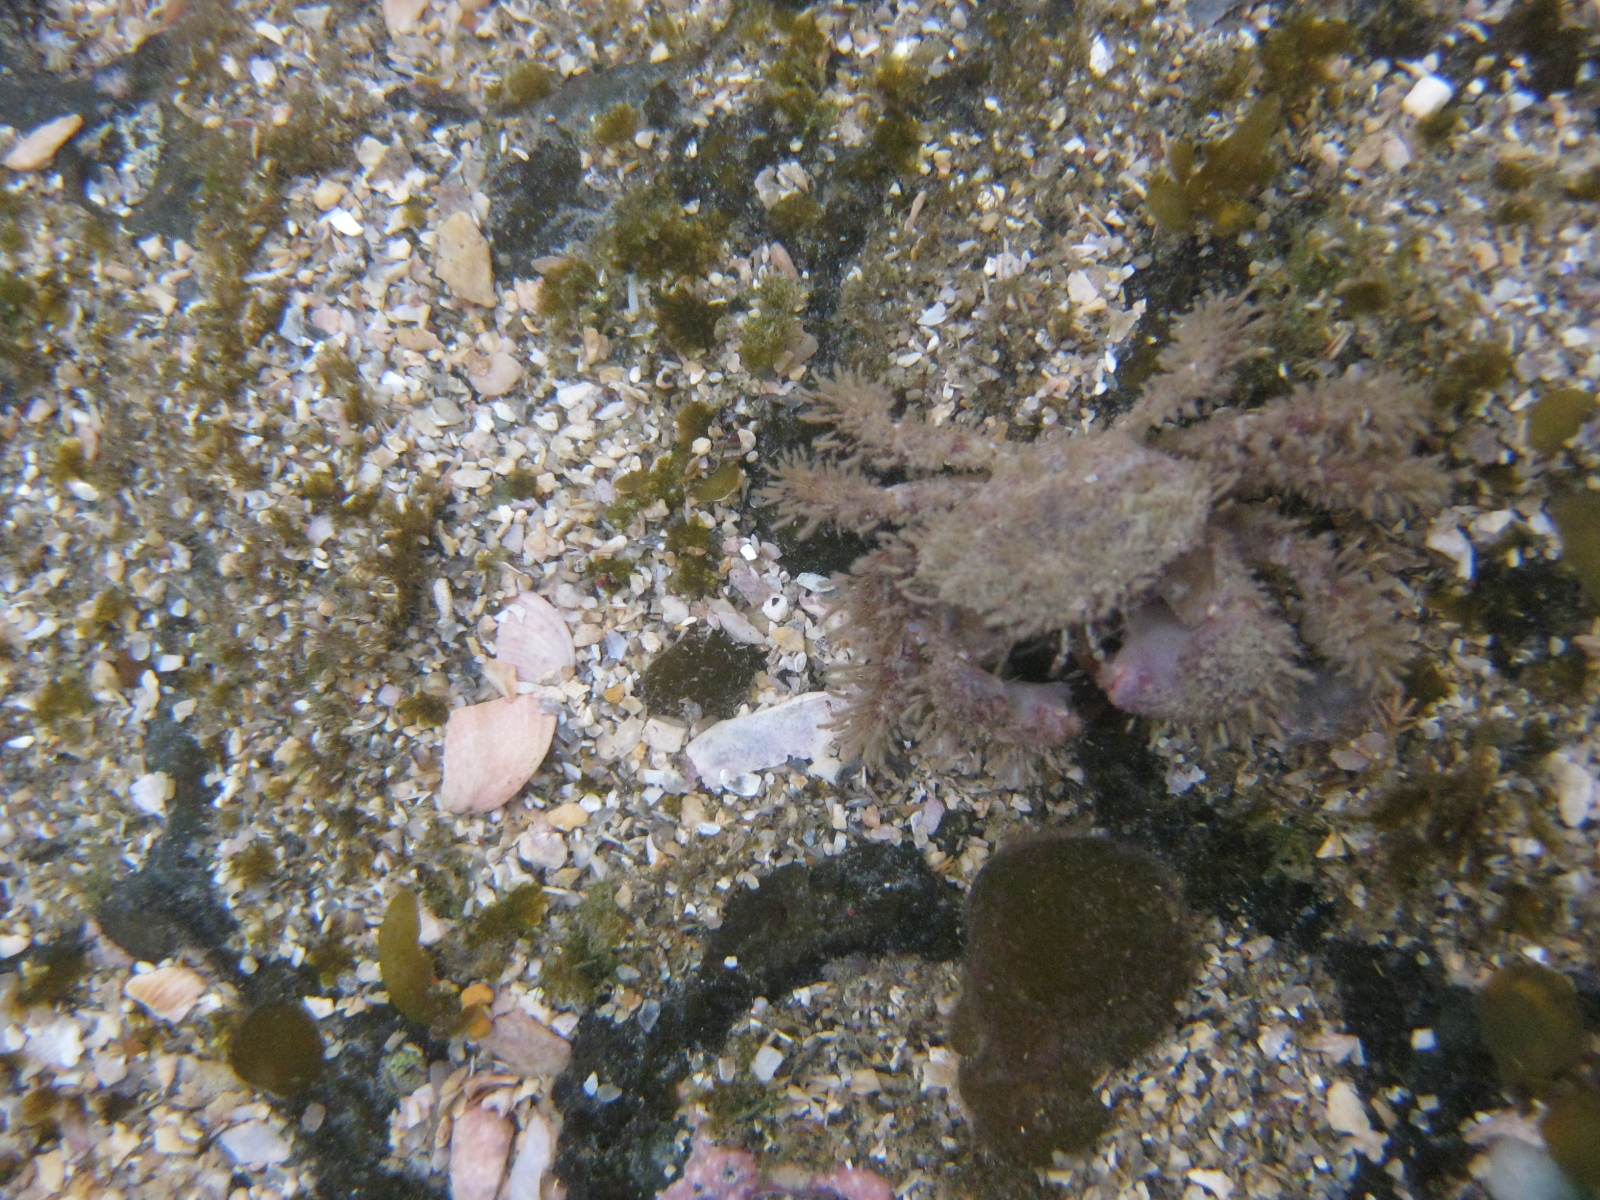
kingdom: Animalia
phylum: Arthropoda
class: Malacostraca
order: Decapoda
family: Pilumnidae
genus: Pilumnus
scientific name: Pilumnus novaezealandiae
